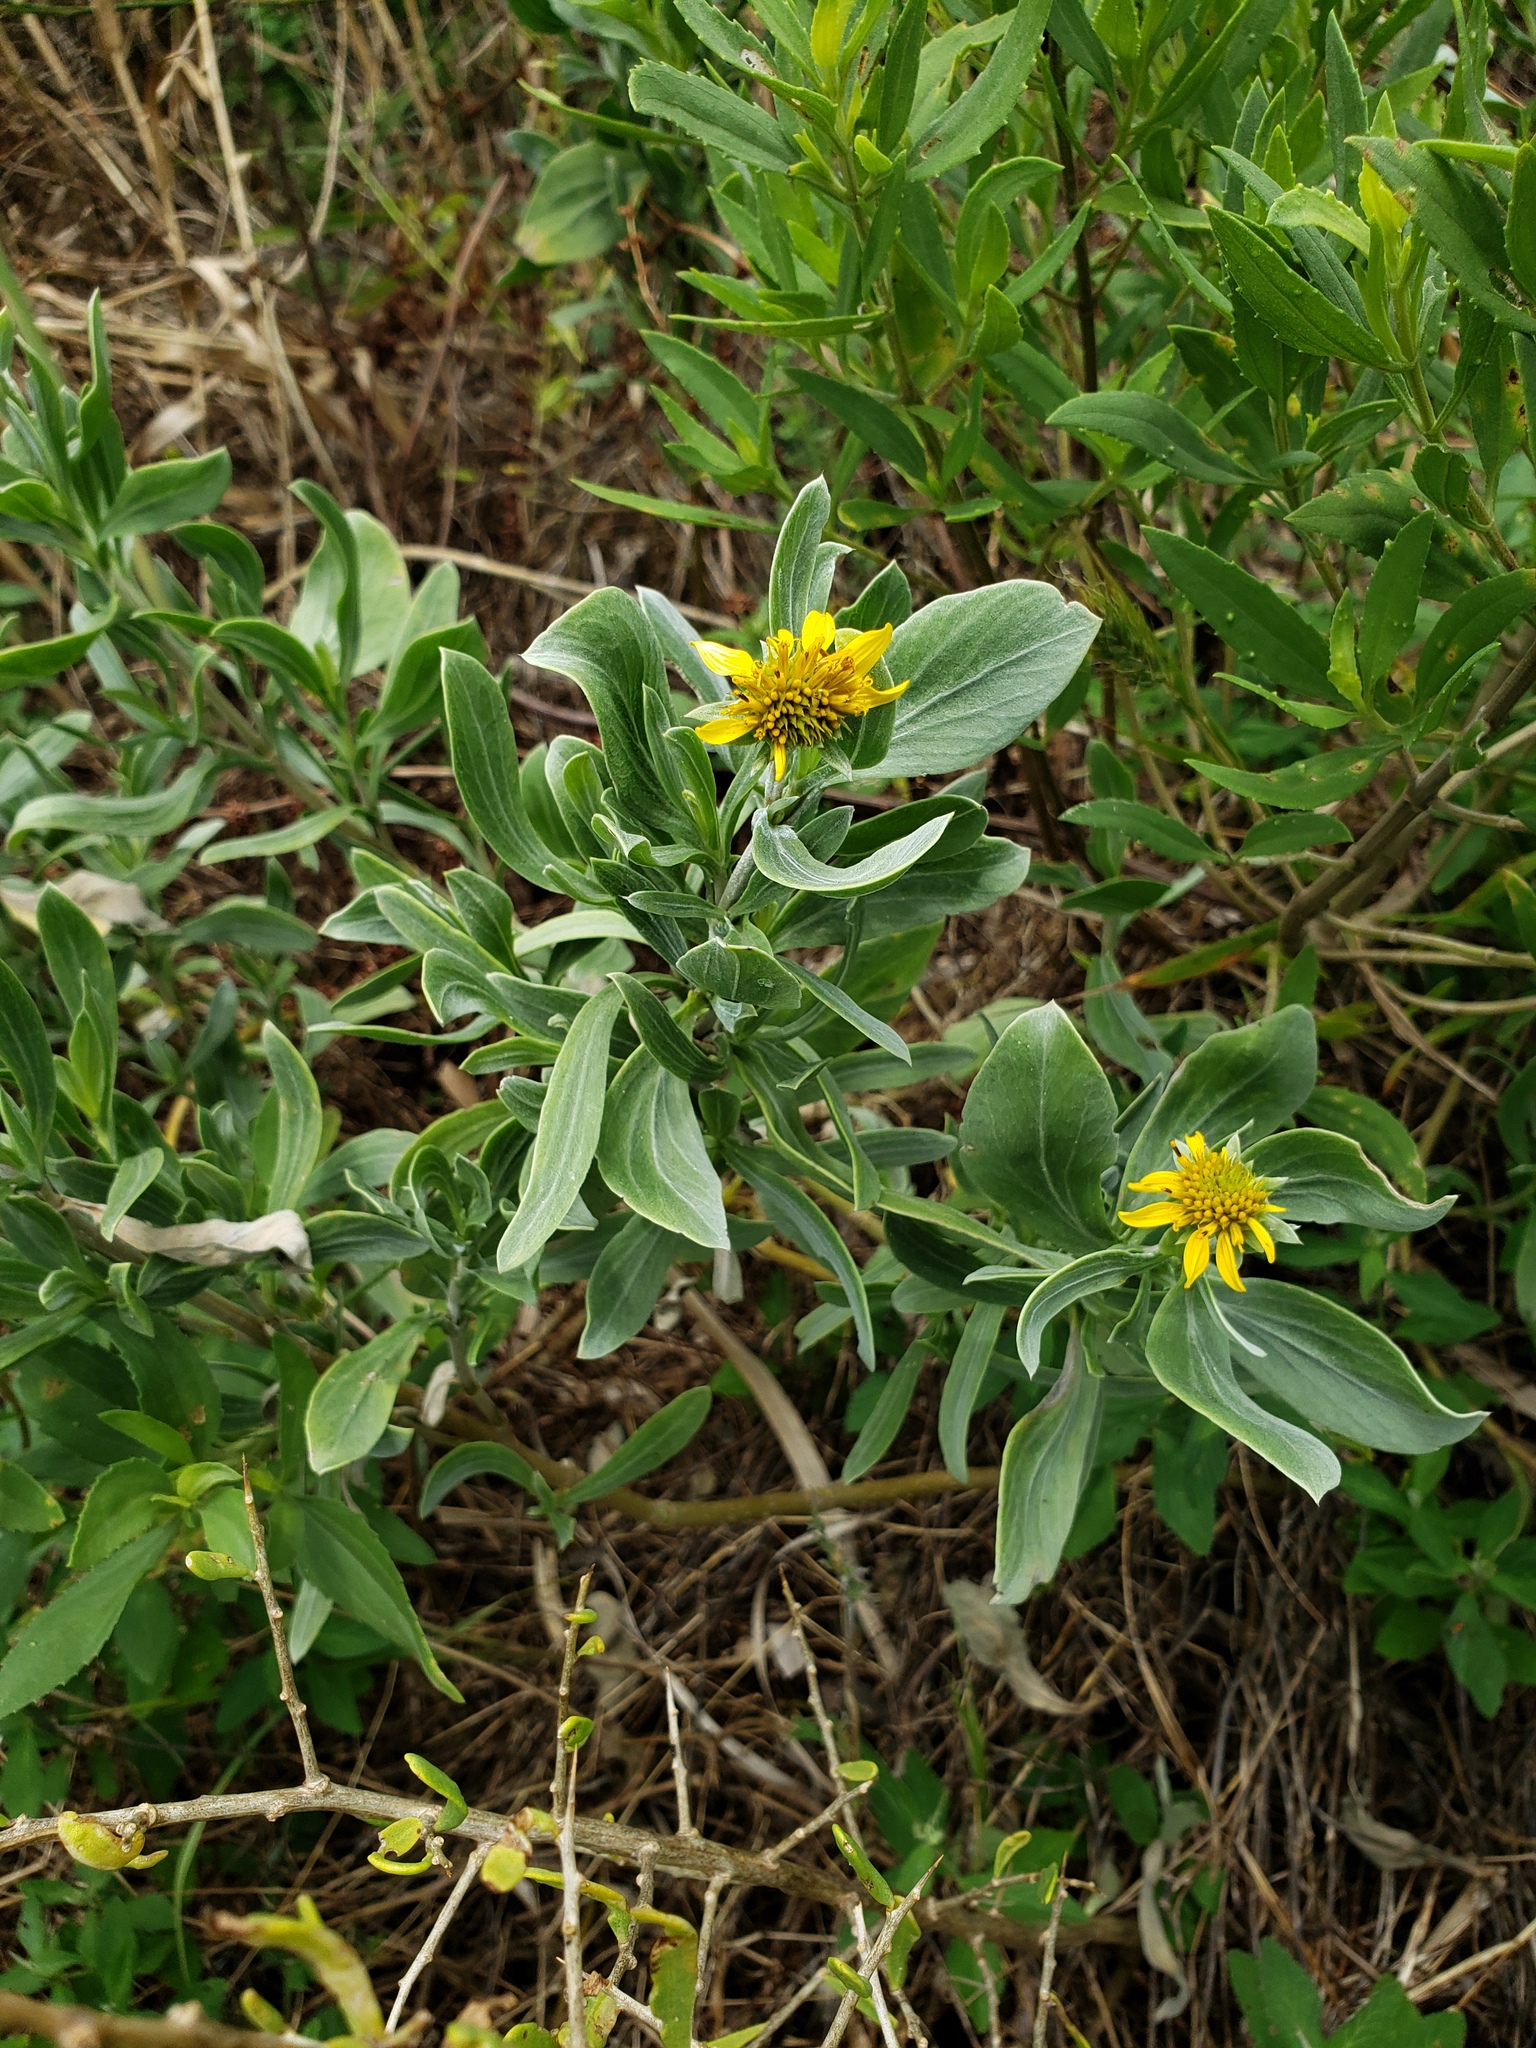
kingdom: Plantae
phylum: Tracheophyta
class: Magnoliopsida
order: Asterales
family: Asteraceae
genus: Borrichia
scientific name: Borrichia frutescens
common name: Sea oxeye
